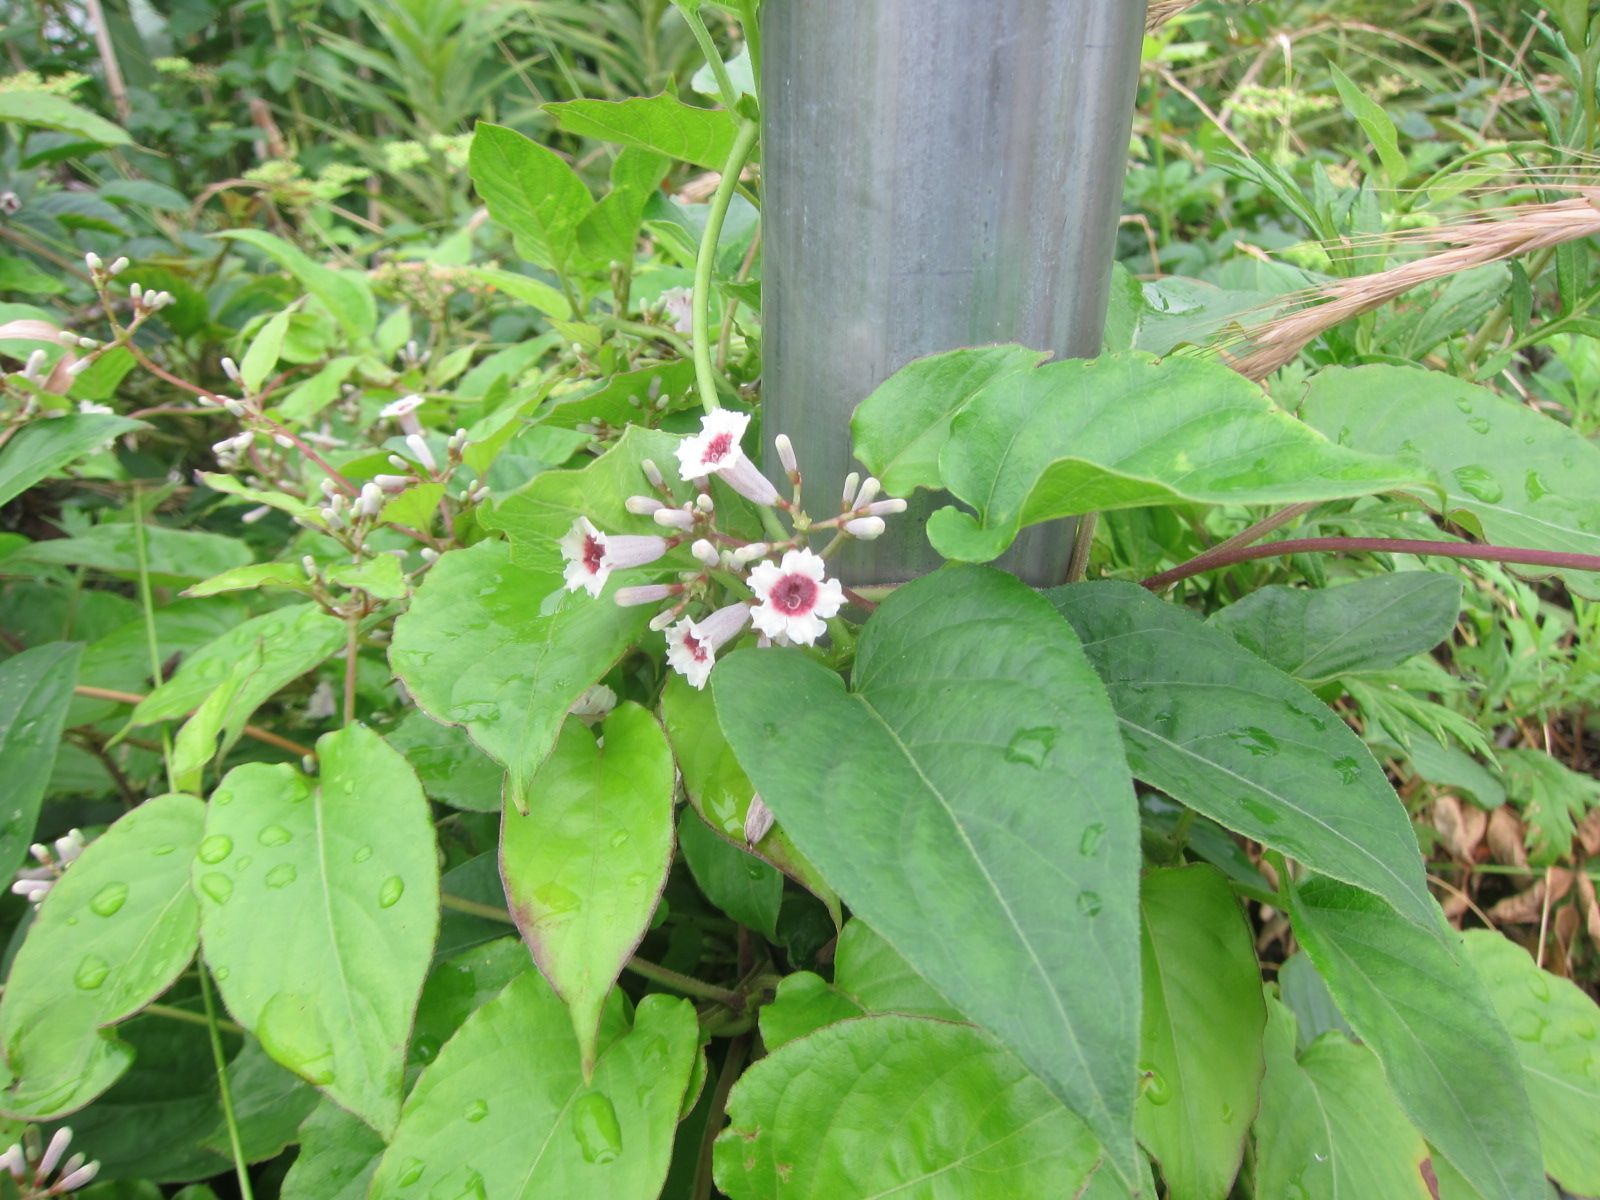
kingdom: Plantae
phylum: Tracheophyta
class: Magnoliopsida
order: Gentianales
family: Rubiaceae
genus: Paederia
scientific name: Paederia foetida
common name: Stinkvine
